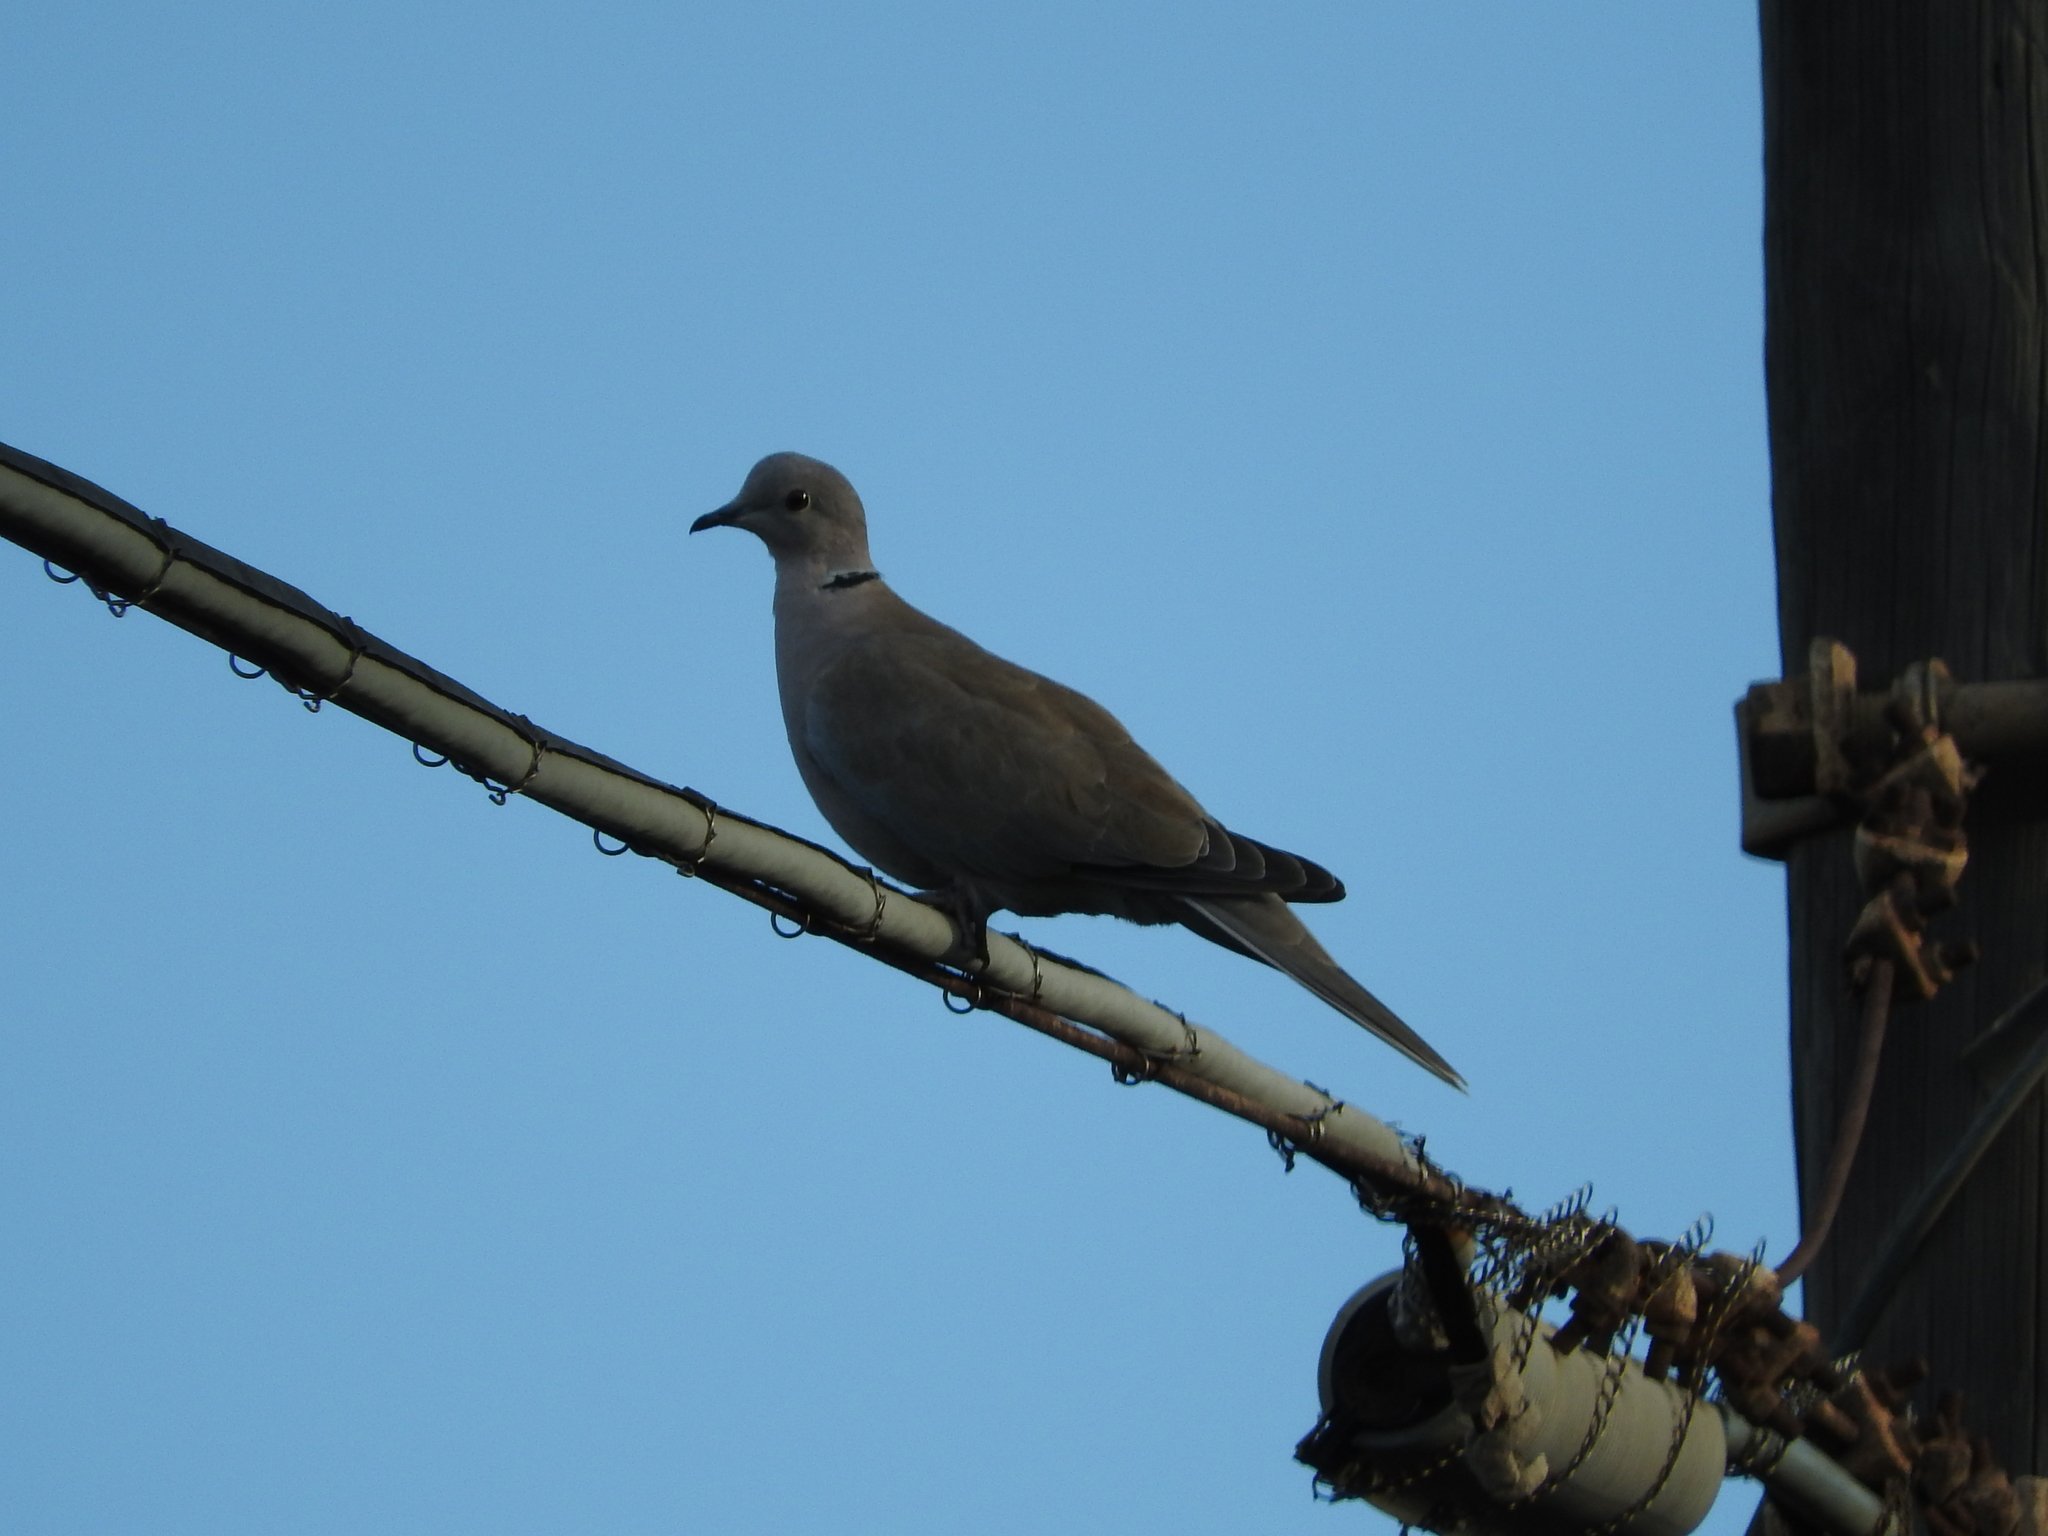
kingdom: Animalia
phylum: Chordata
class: Aves
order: Columbiformes
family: Columbidae
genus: Streptopelia
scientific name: Streptopelia decaocto
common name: Eurasian collared dove
